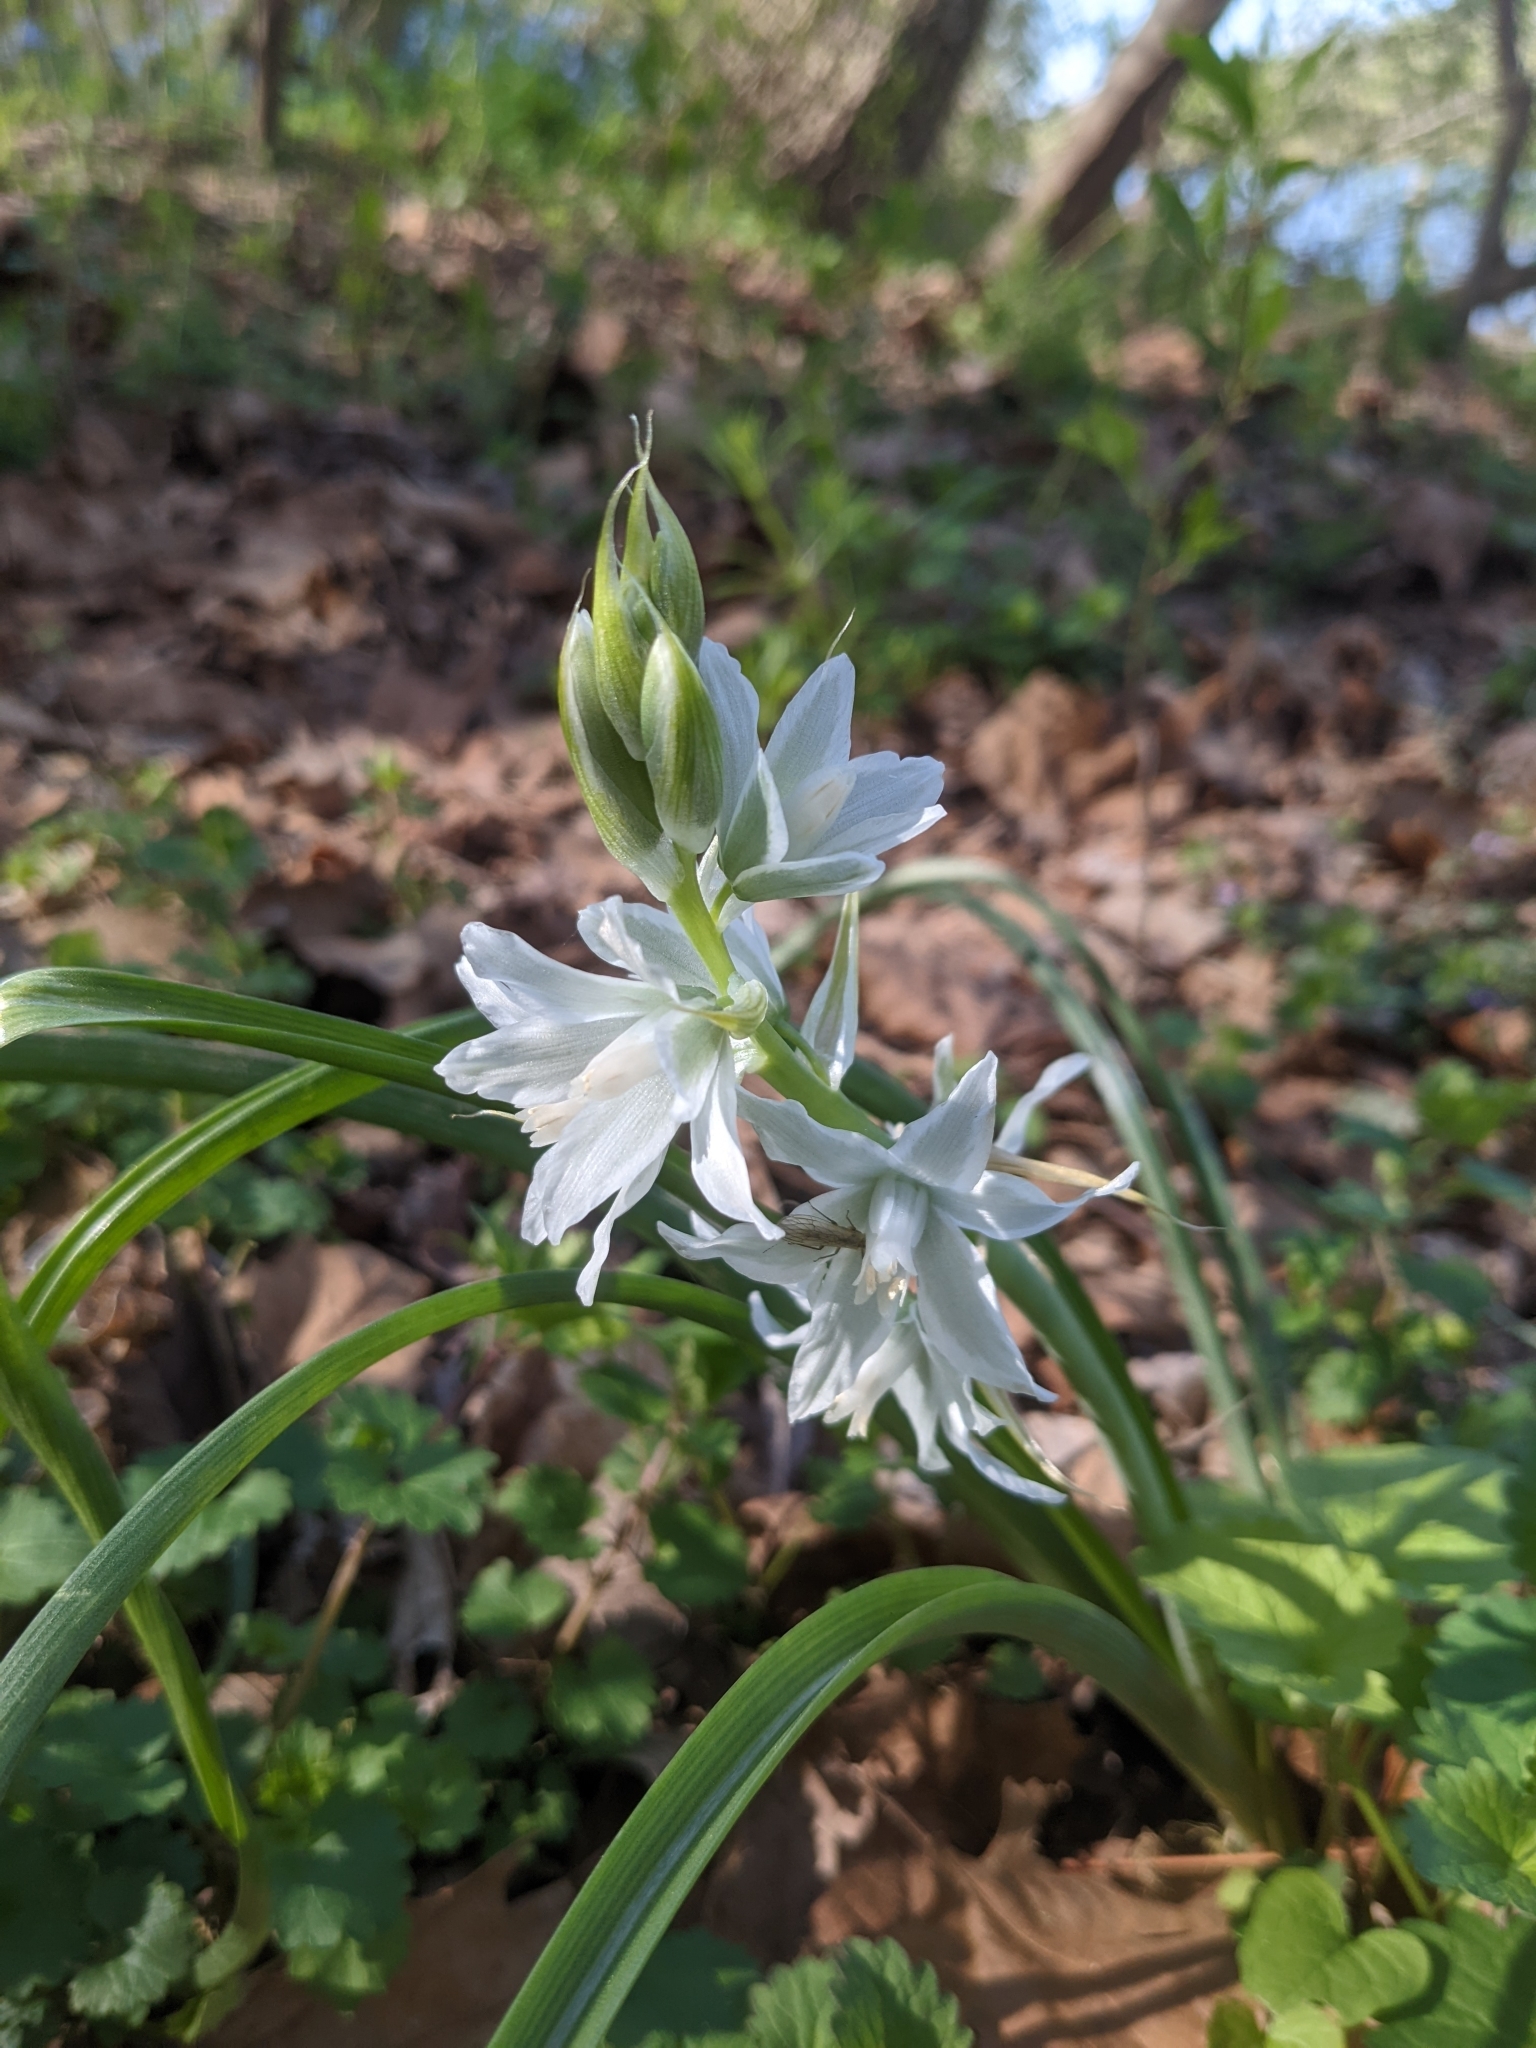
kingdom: Plantae
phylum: Tracheophyta
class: Liliopsida
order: Asparagales
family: Asparagaceae
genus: Ornithogalum
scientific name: Ornithogalum nutans
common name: Drooping star-of-bethlehem
